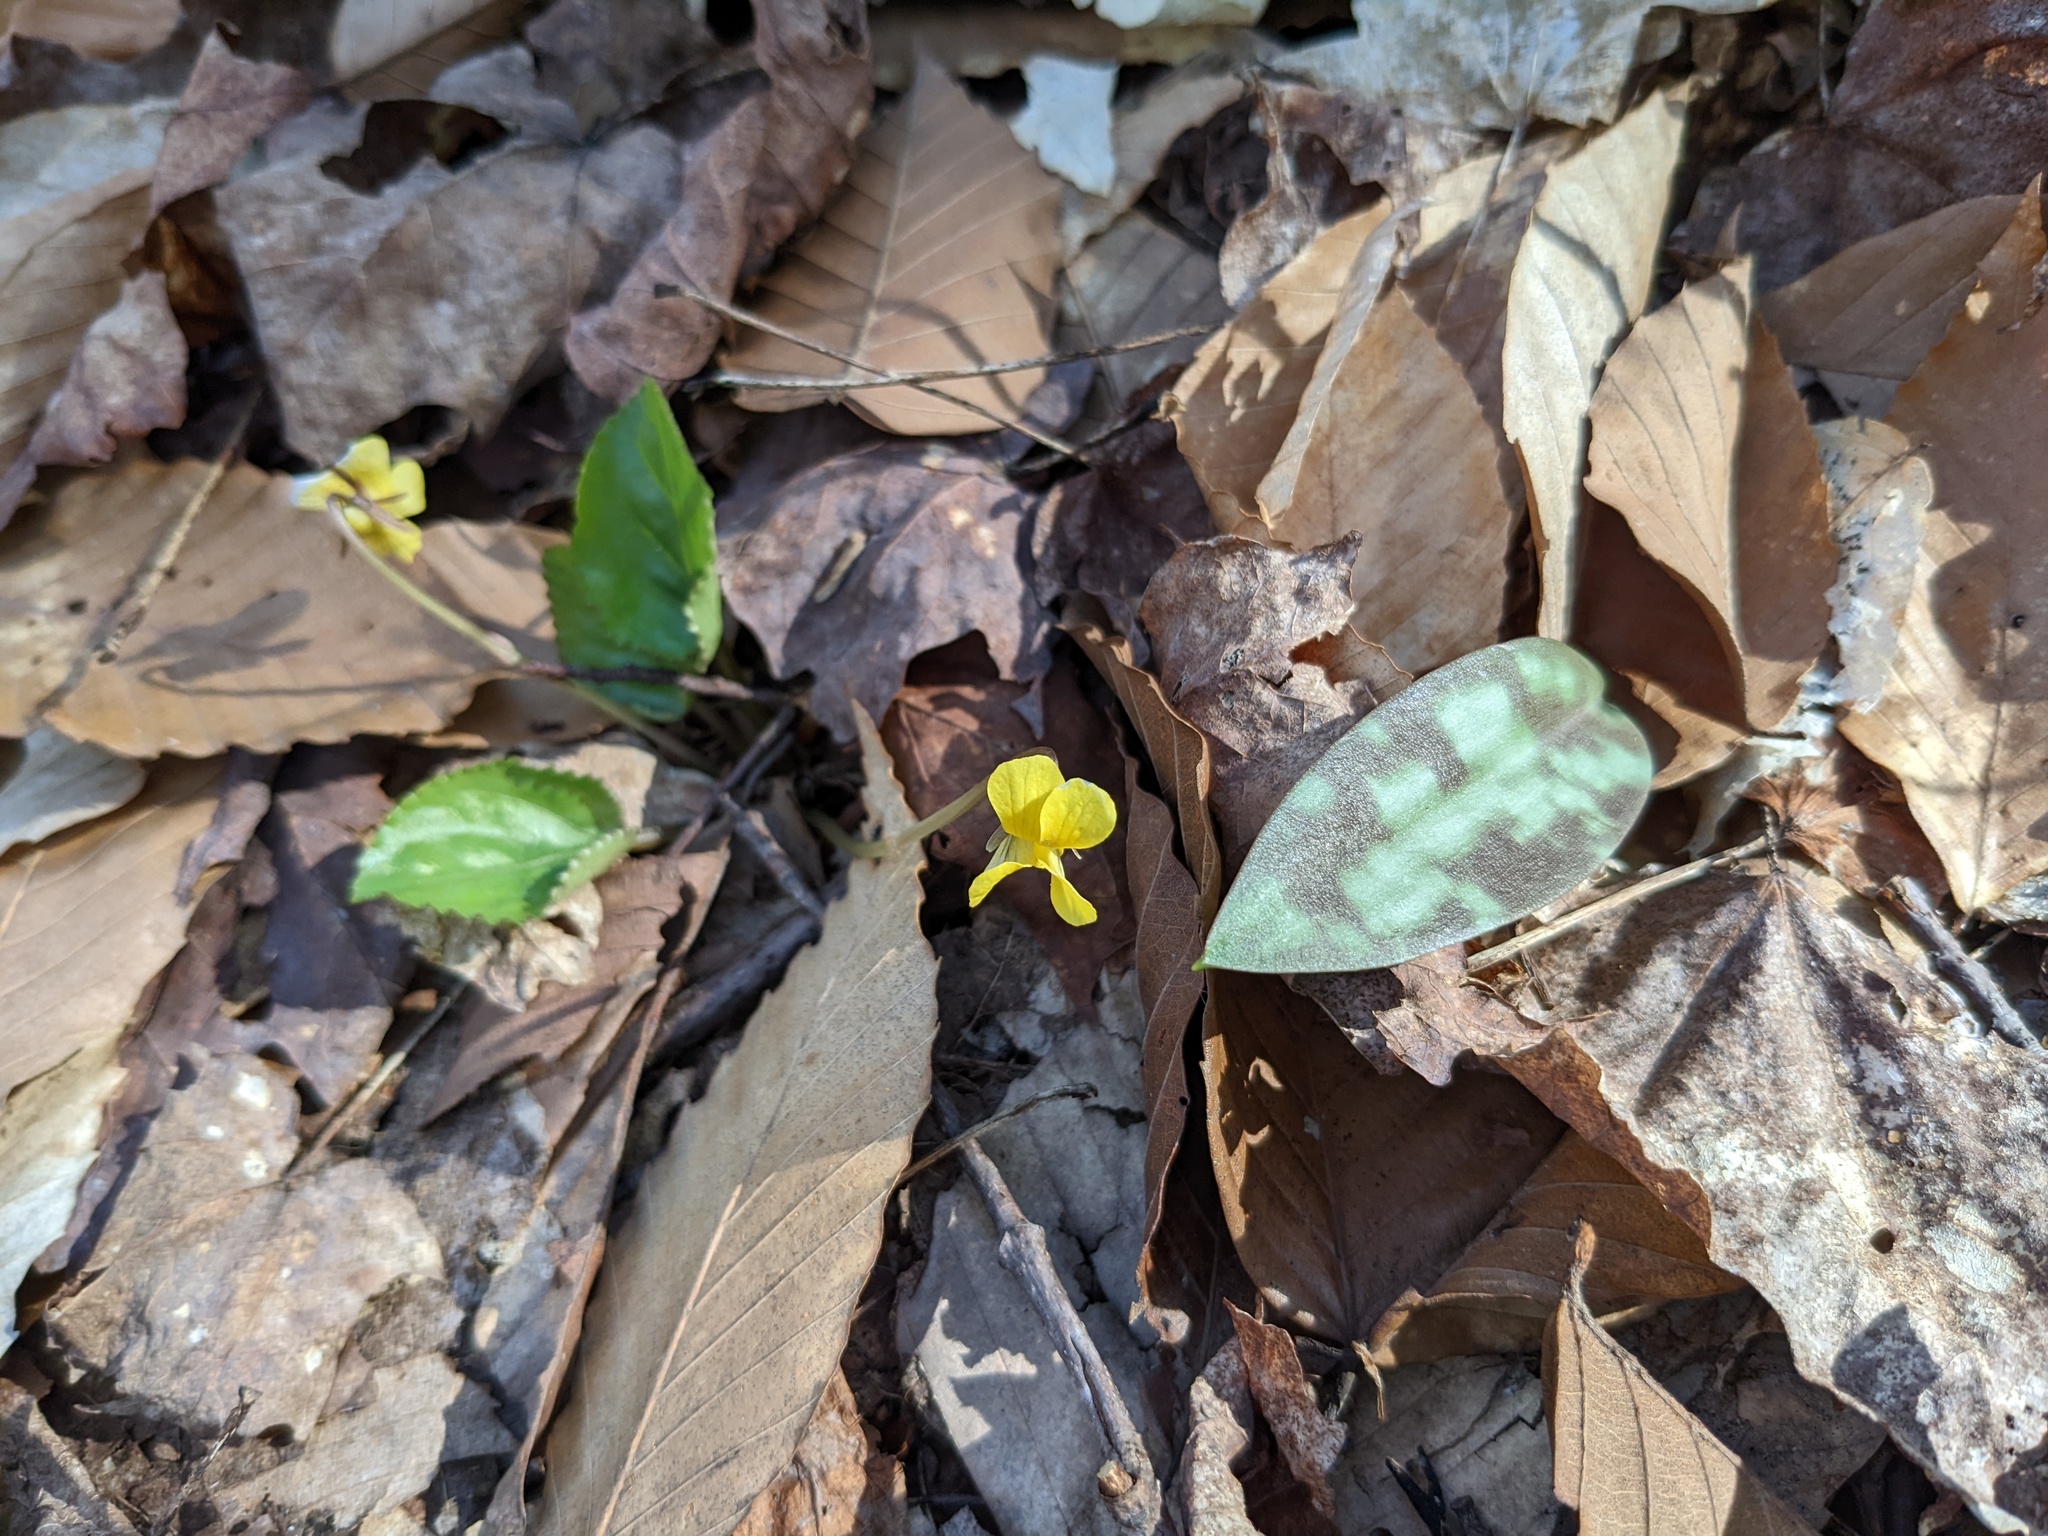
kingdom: Plantae
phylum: Tracheophyta
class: Liliopsida
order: Liliales
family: Liliaceae
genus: Erythronium
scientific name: Erythronium americanum
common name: Yellow adder's-tongue
